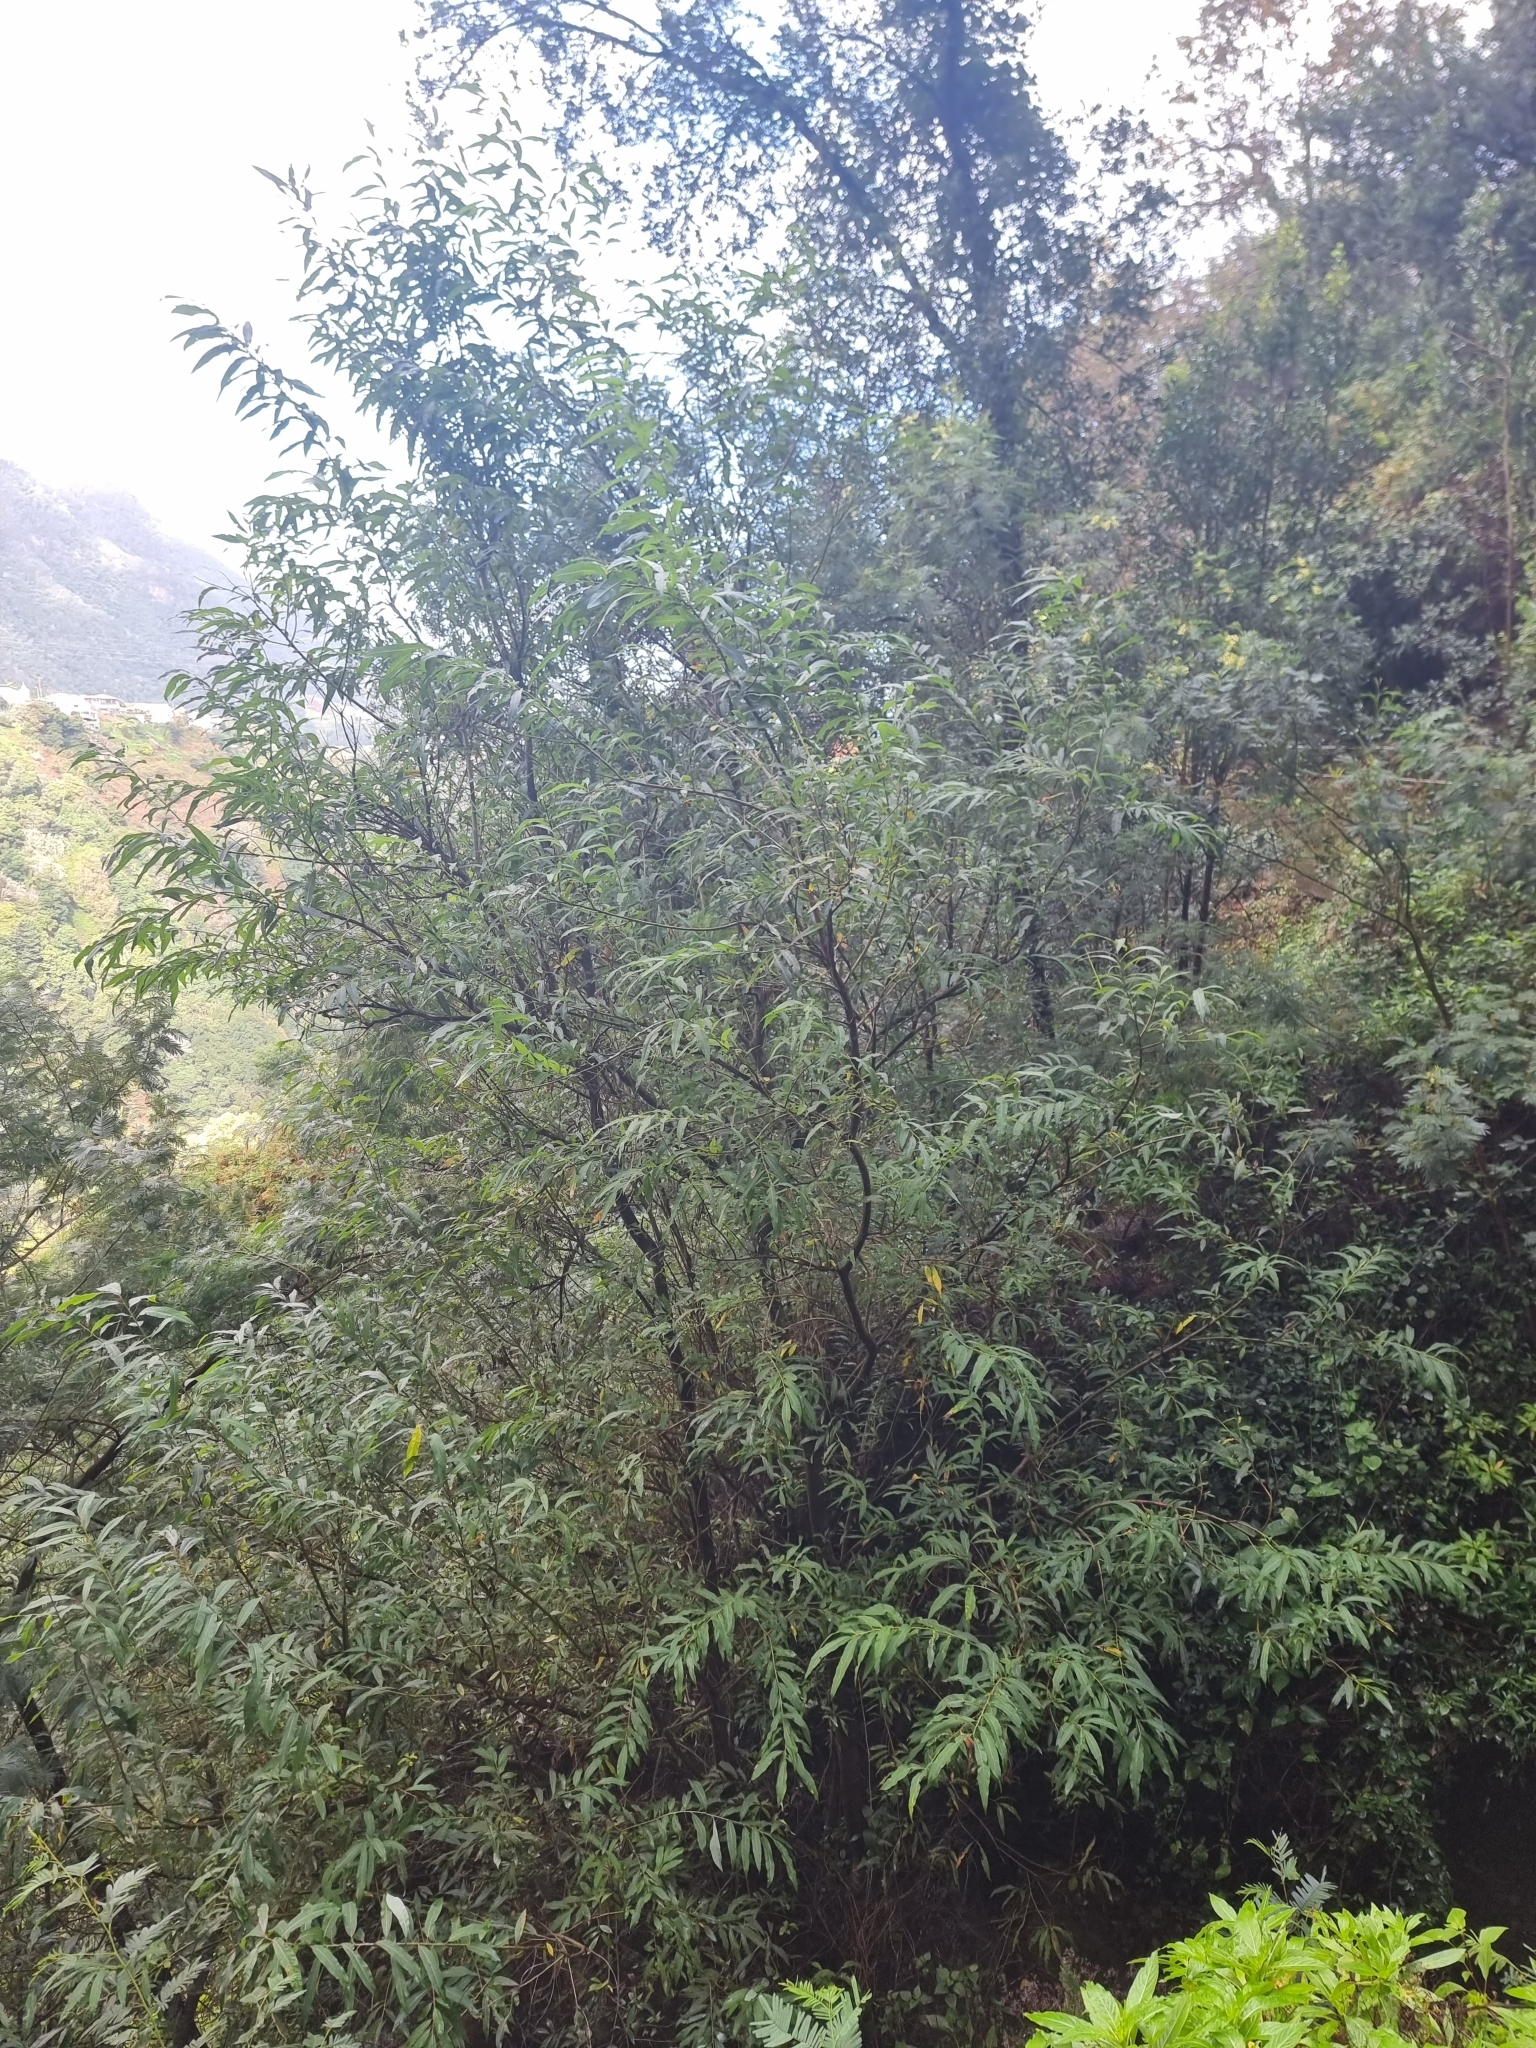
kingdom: Plantae
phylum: Tracheophyta
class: Magnoliopsida
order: Malpighiales
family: Salicaceae
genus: Salix
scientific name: Salix canariensis
